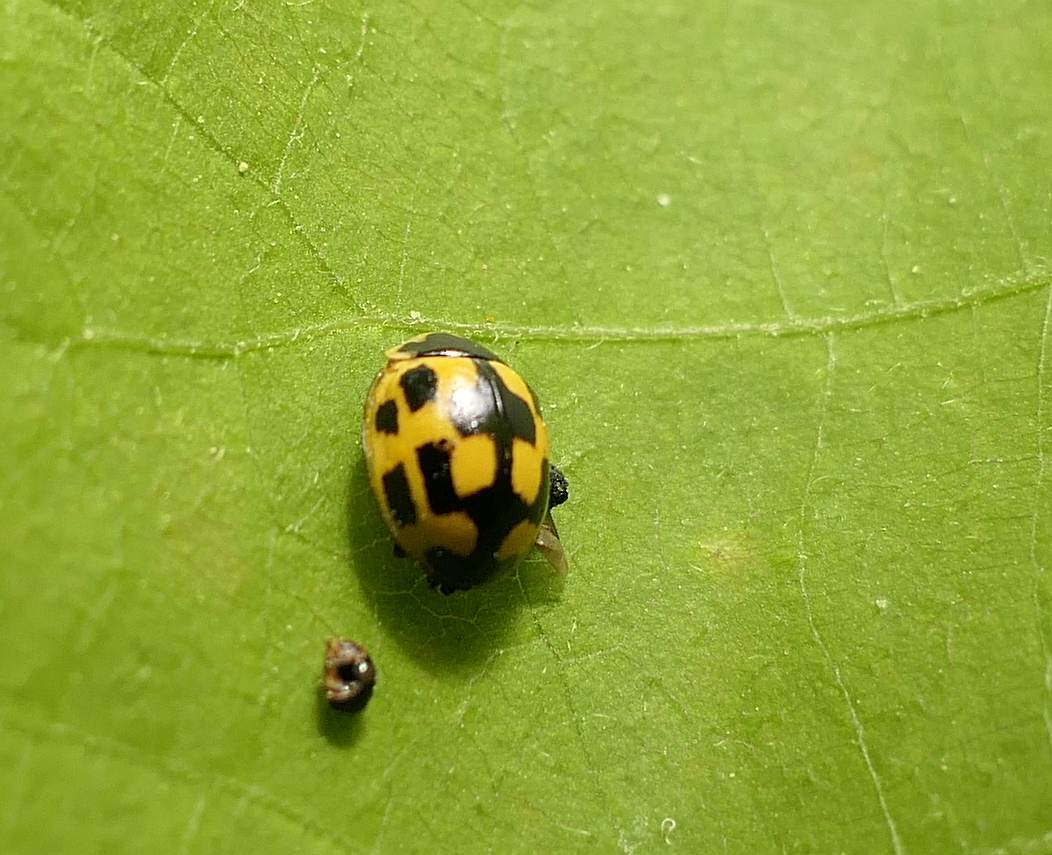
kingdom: Animalia
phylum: Arthropoda
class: Insecta
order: Coleoptera
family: Coccinellidae
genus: Propylaea
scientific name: Propylaea quatuordecimpunctata
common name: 14-spotted ladybird beetle
